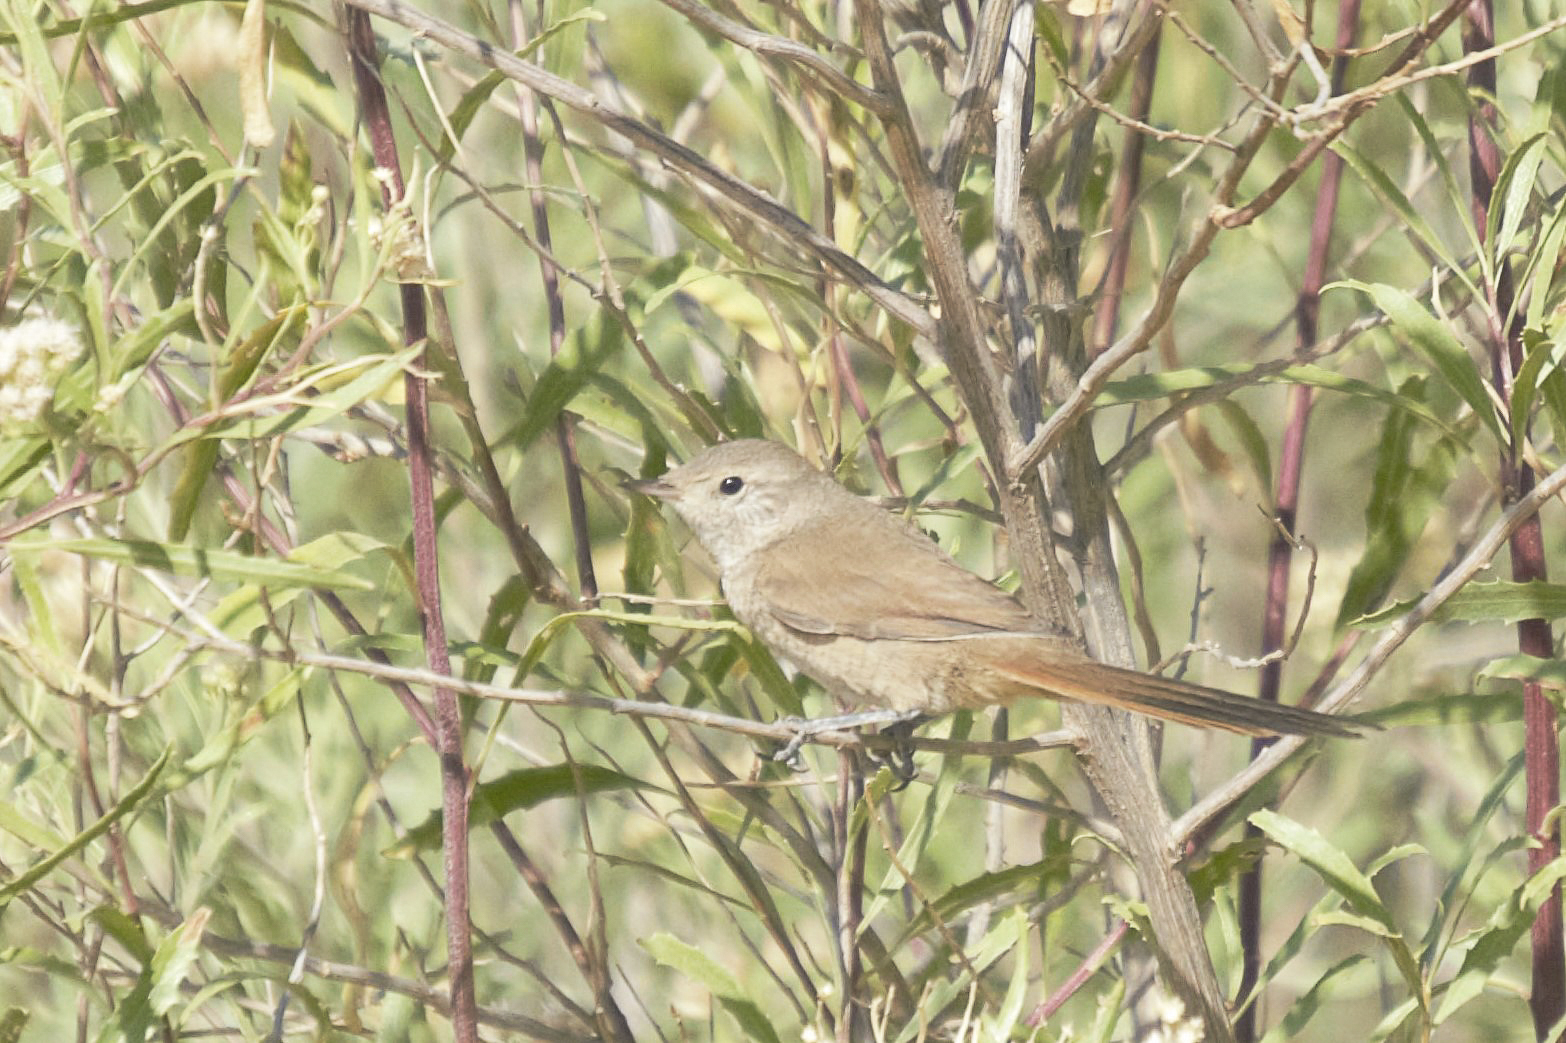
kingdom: Animalia
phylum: Chordata
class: Aves
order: Passeriformes
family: Furnariidae
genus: Asthenes
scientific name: Asthenes pyrrholeuca
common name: Sharp-billed canastero
